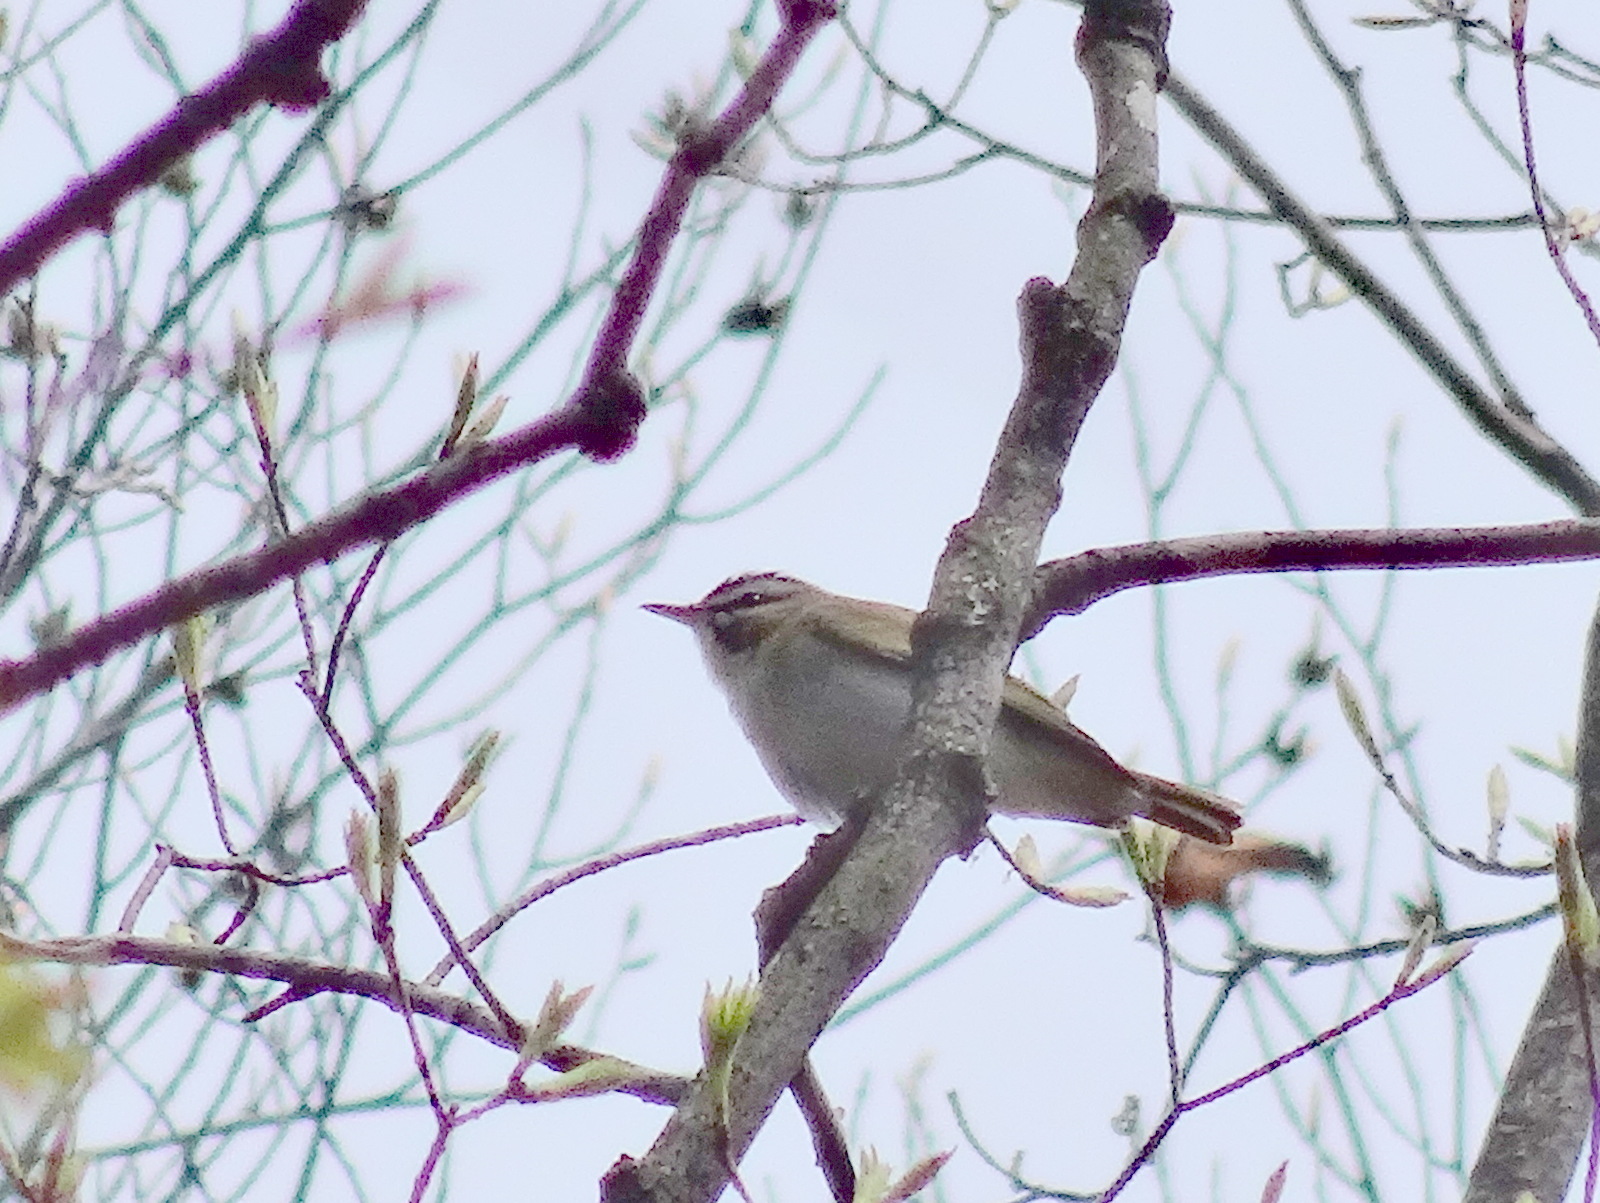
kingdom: Animalia
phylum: Chordata
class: Aves
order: Passeriformes
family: Vireonidae
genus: Vireo
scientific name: Vireo olivaceus
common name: Red-eyed vireo
